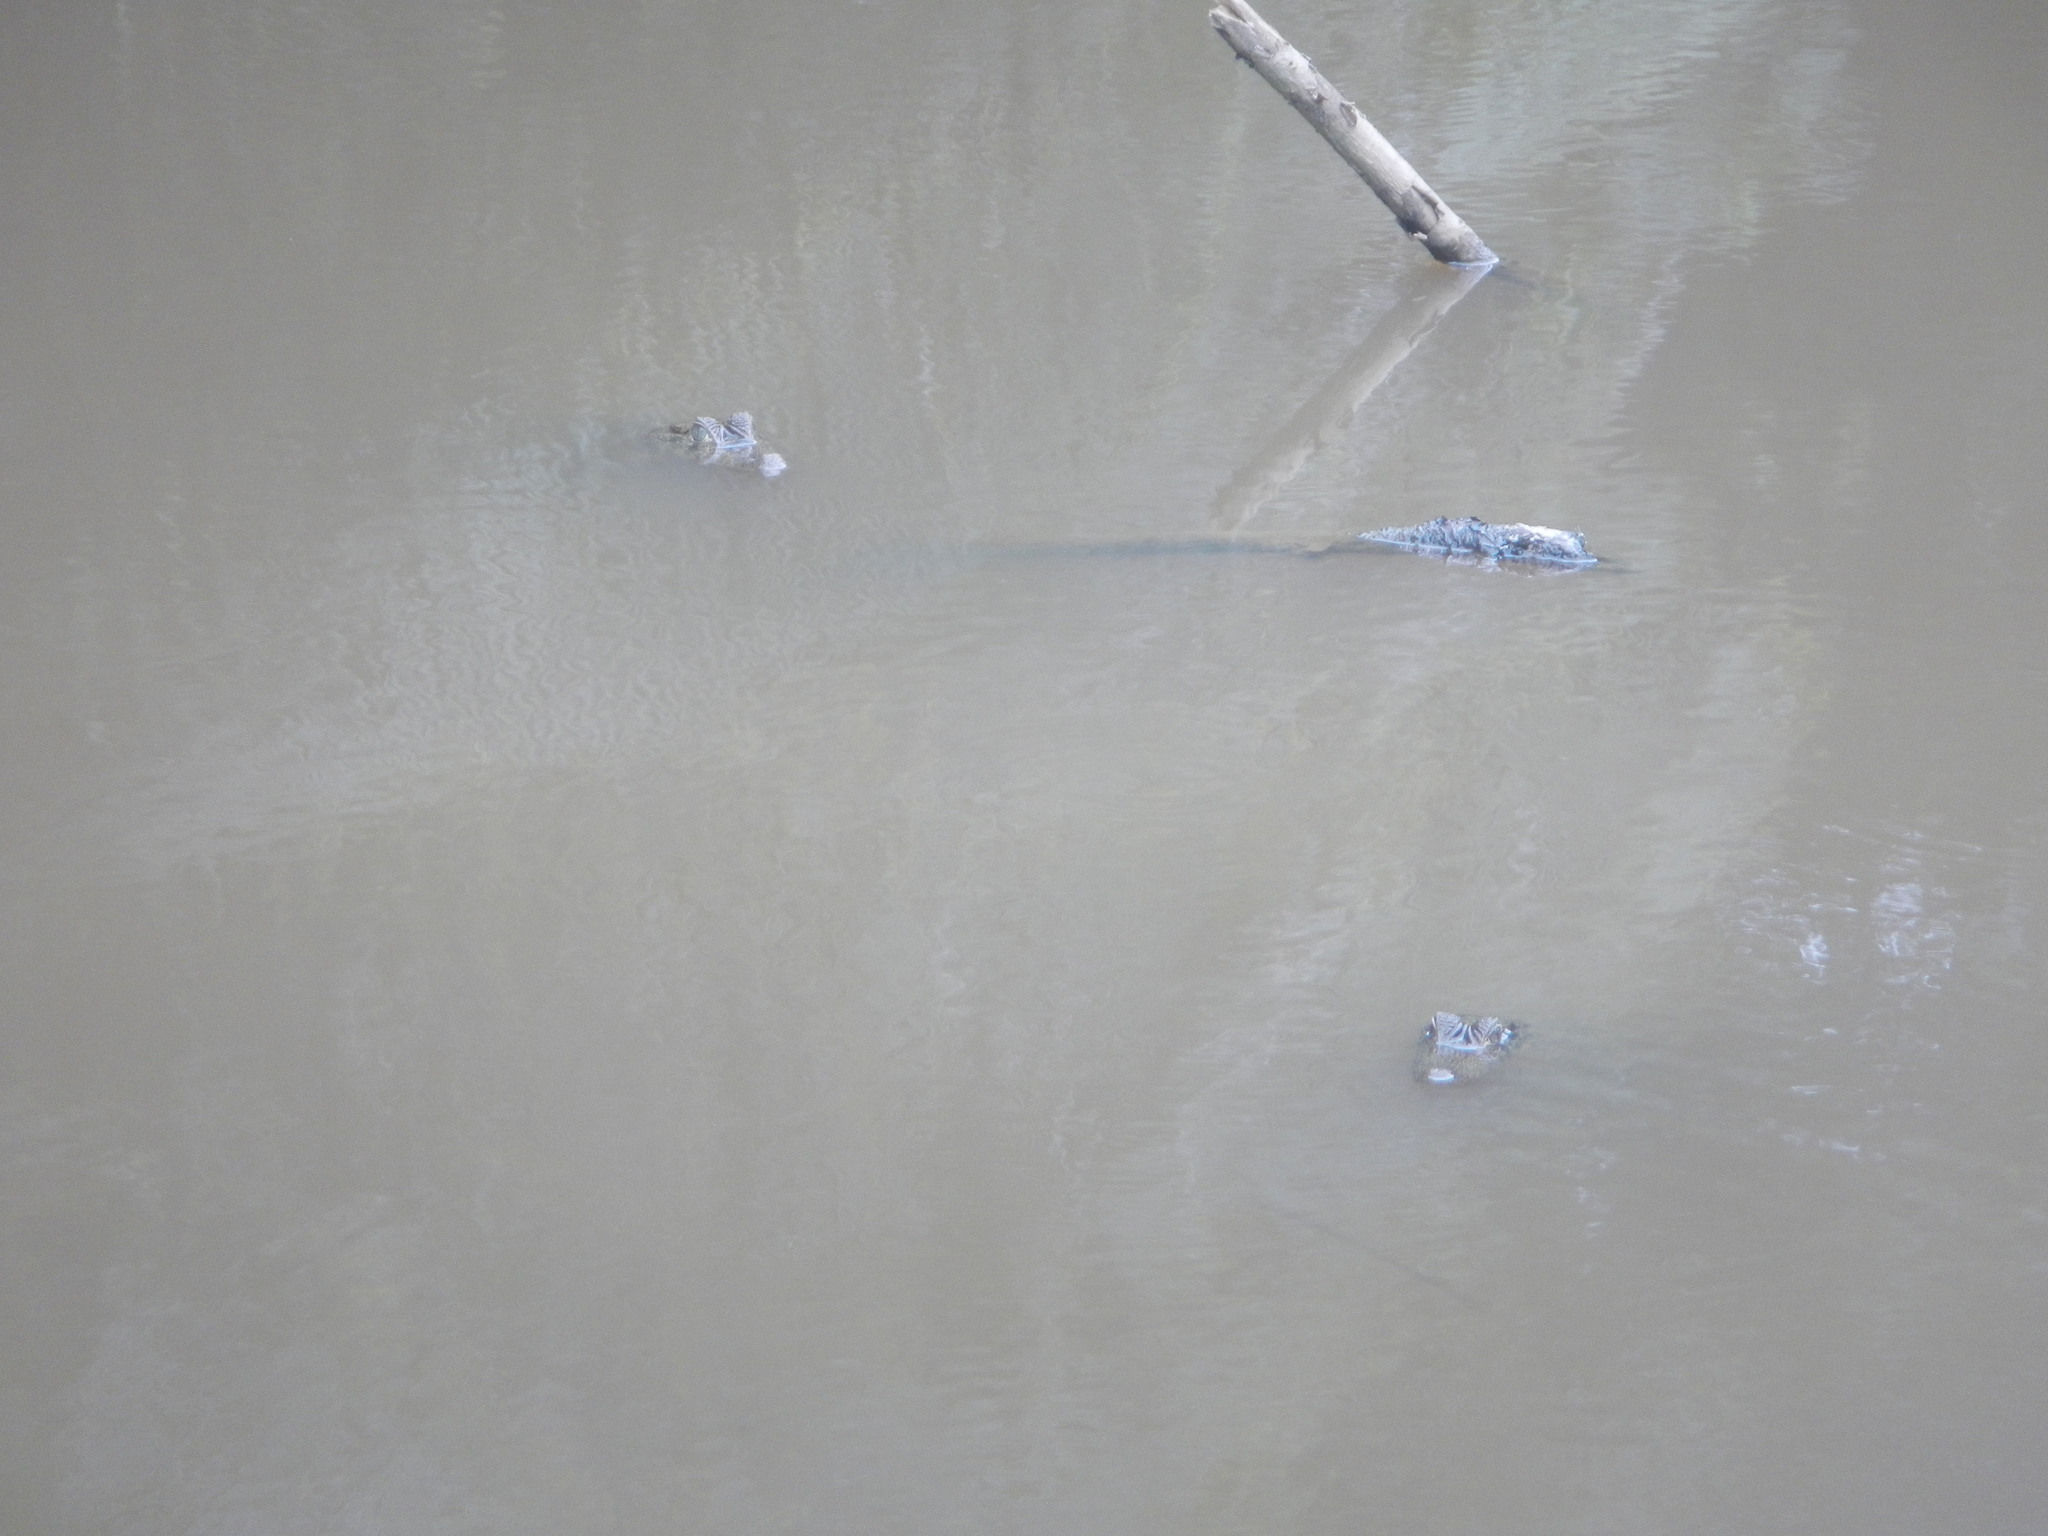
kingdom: Animalia
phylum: Chordata
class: Crocodylia
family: Alligatoridae
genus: Caiman
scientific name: Caiman crocodilus
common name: Common caiman
